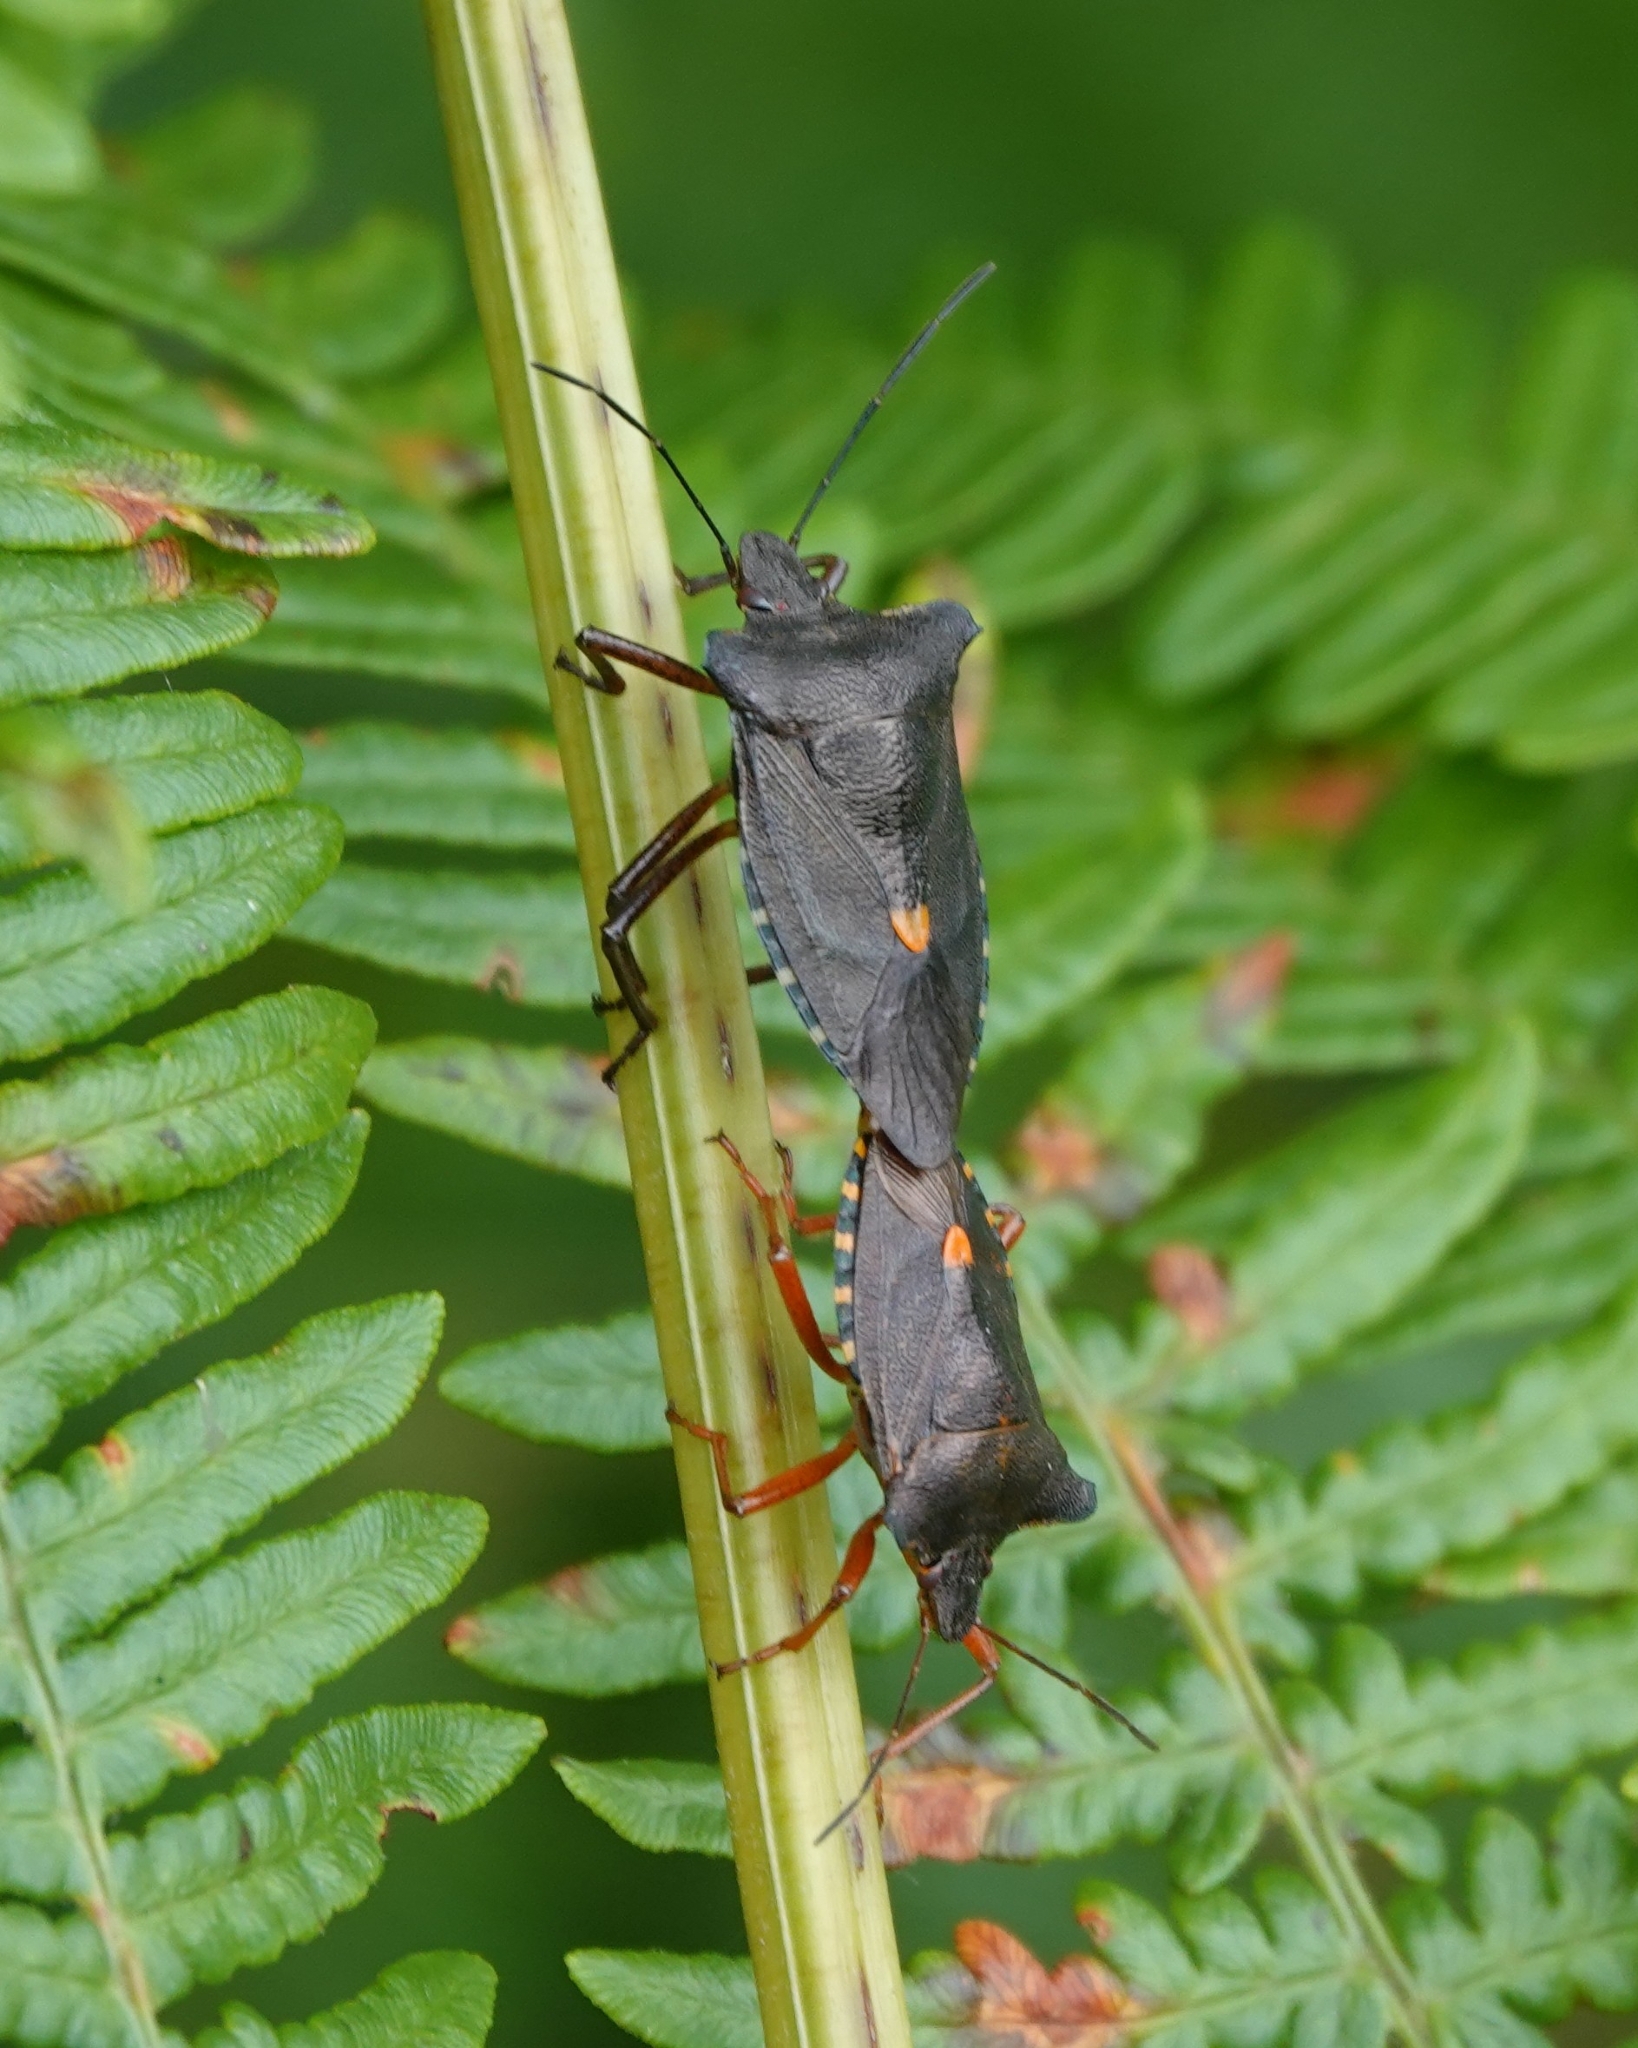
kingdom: Animalia
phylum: Arthropoda
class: Insecta
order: Hemiptera
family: Pentatomidae
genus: Pentatoma
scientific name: Pentatoma rufipes
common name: Forest bug
